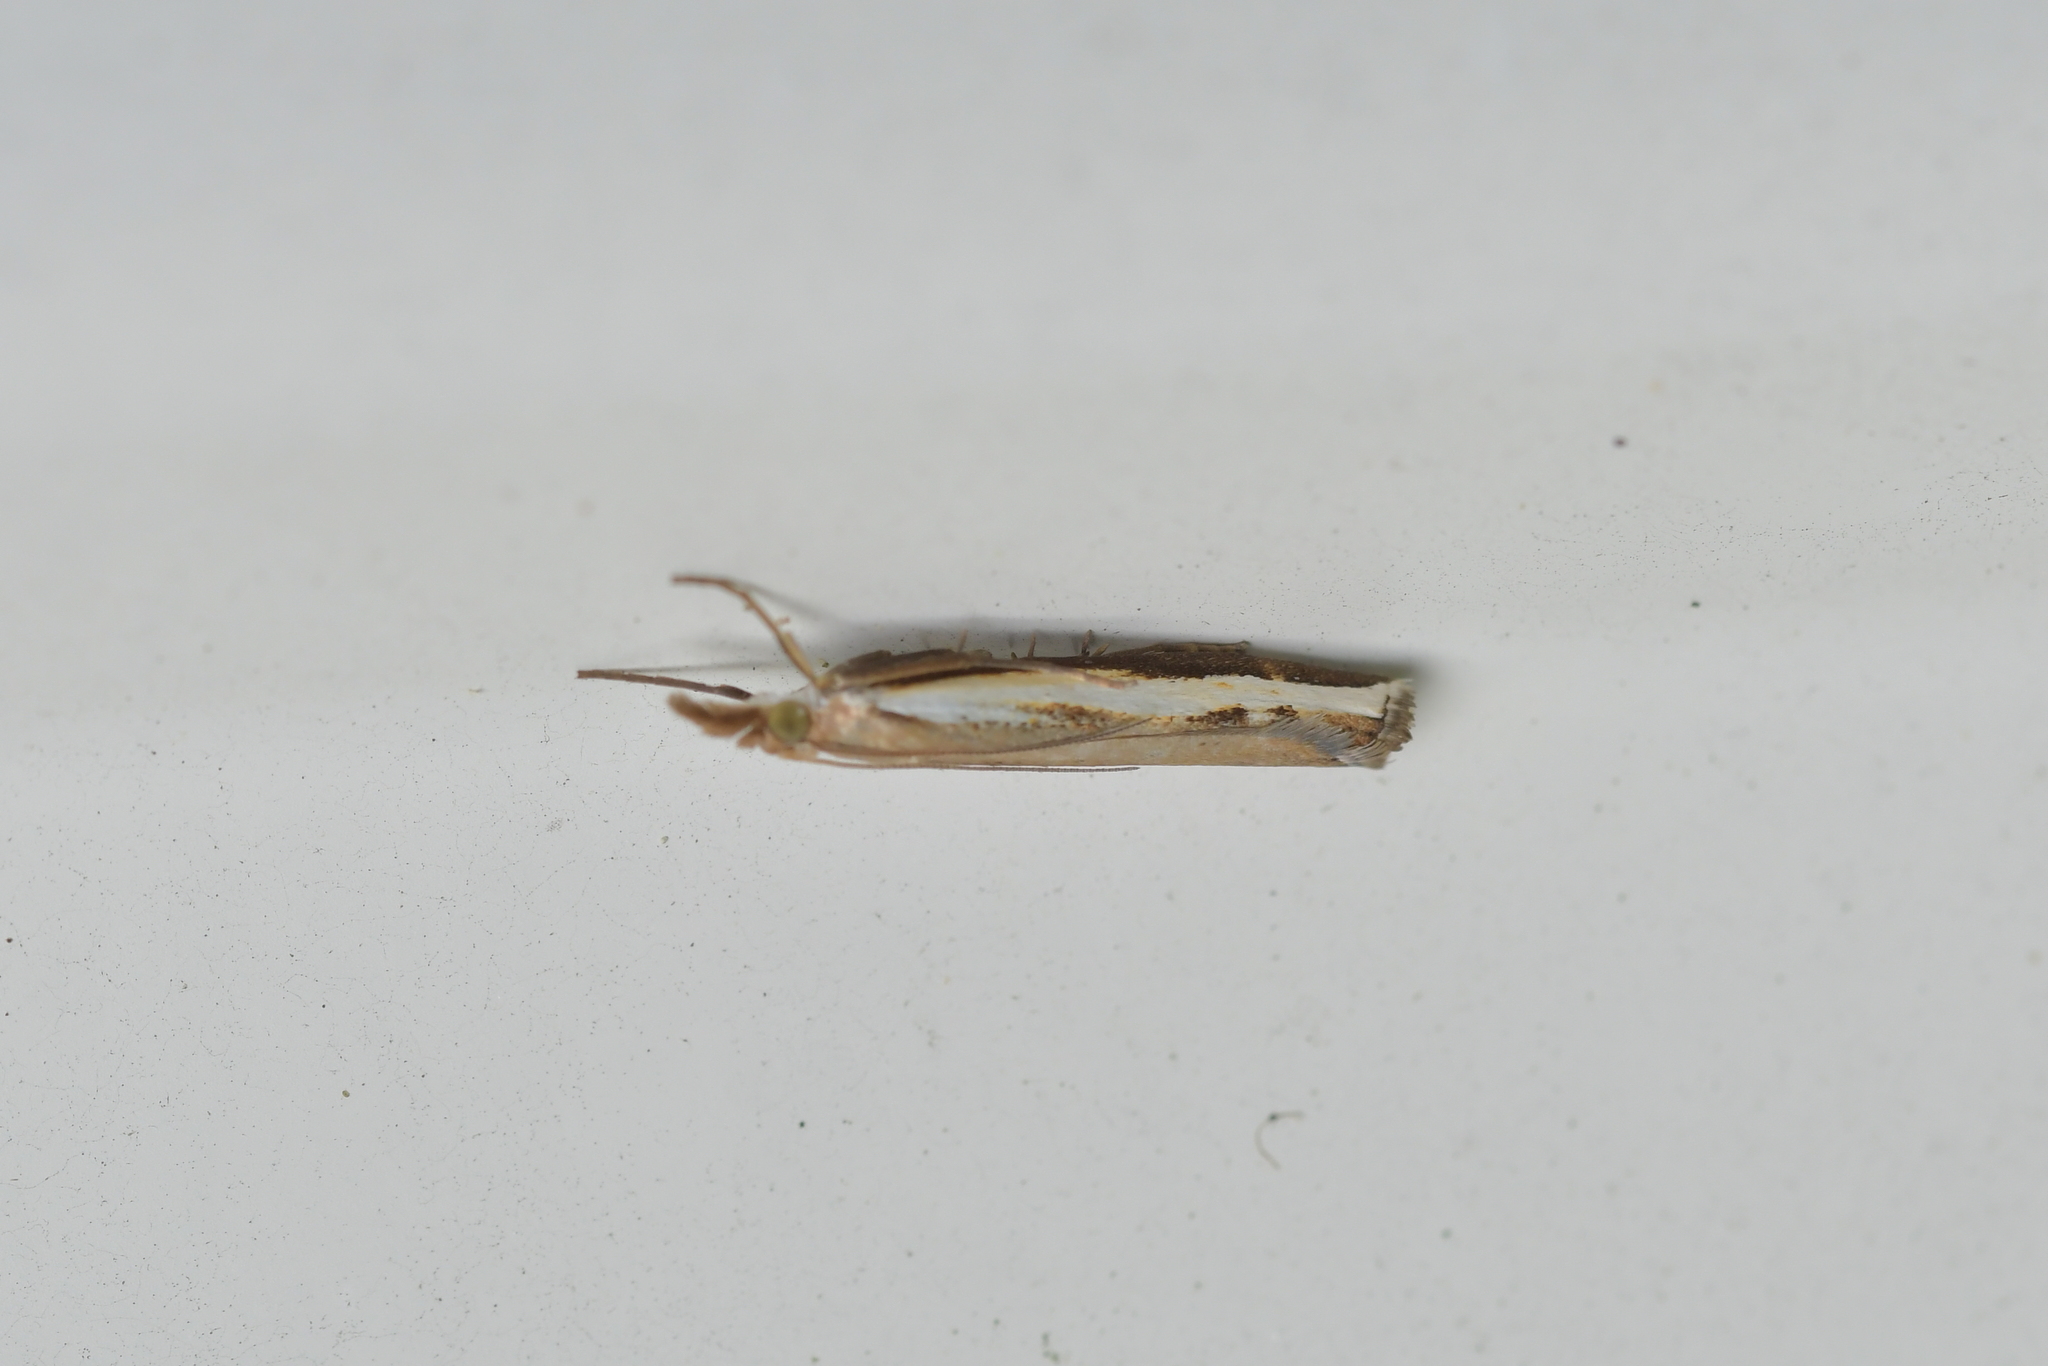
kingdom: Animalia
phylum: Arthropoda
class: Insecta
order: Lepidoptera
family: Crambidae
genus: Orocrambus
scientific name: Orocrambus flexuosellus
